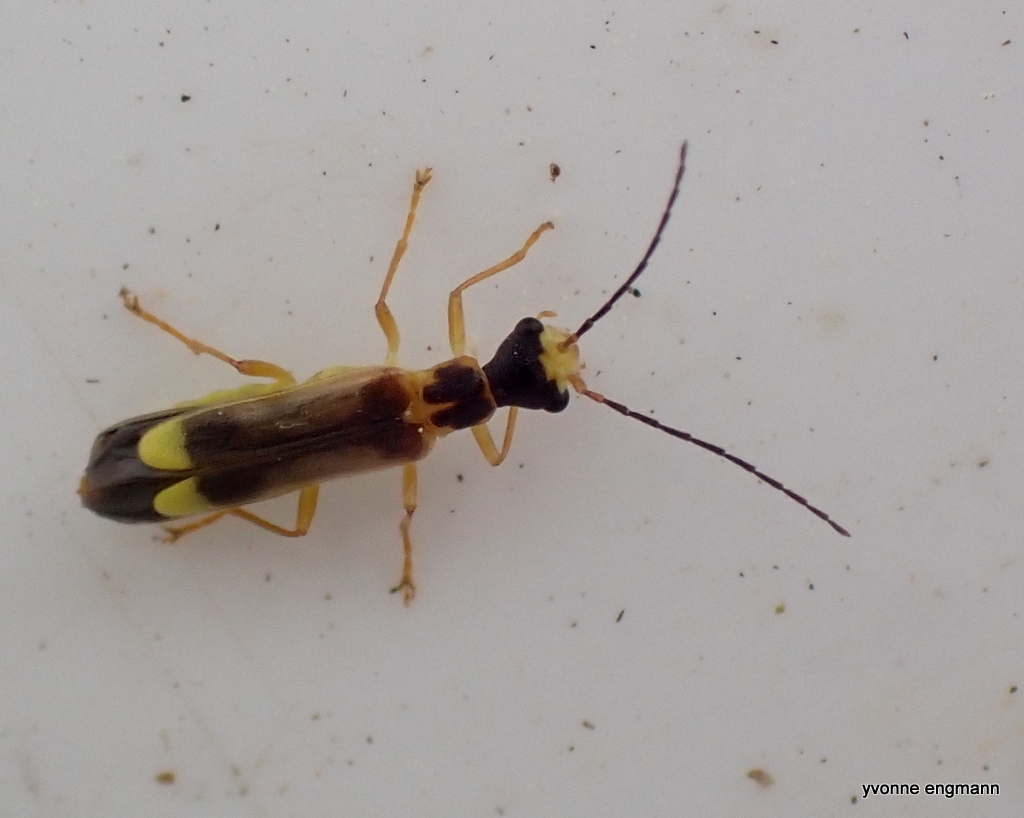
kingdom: Animalia
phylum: Arthropoda
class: Insecta
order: Coleoptera
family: Cantharidae
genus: Malthinus
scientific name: Malthinus flaveolus
